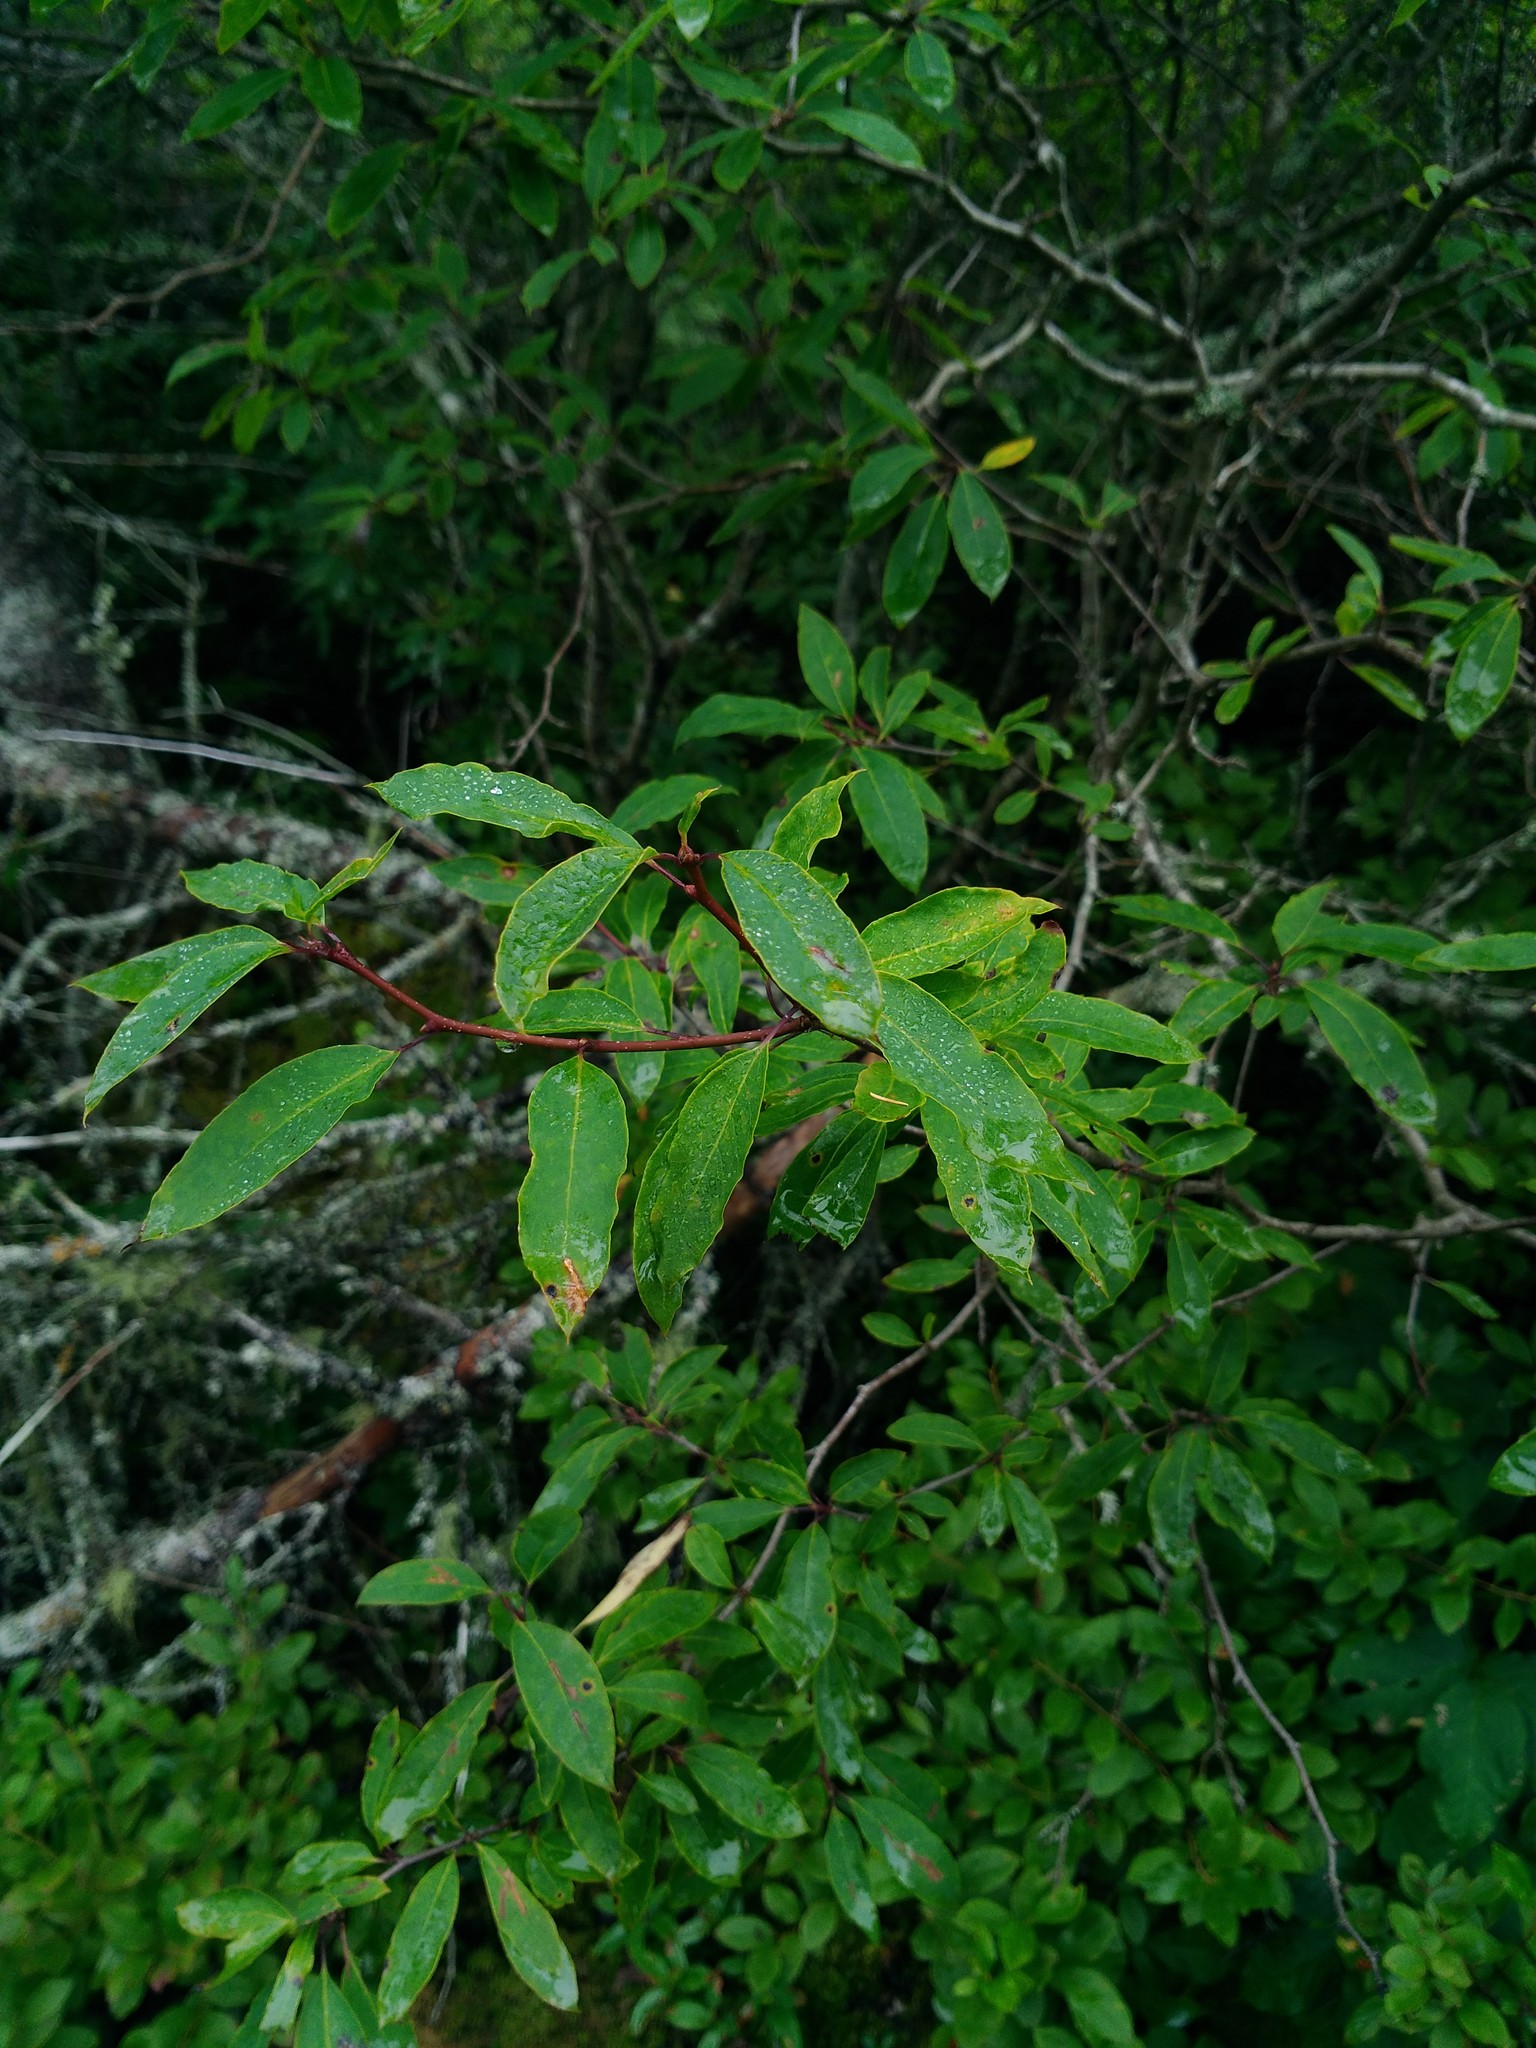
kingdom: Plantae
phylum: Tracheophyta
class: Magnoliopsida
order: Aquifoliales
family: Aquifoliaceae
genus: Ilex
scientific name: Ilex mucronata
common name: Catberry
